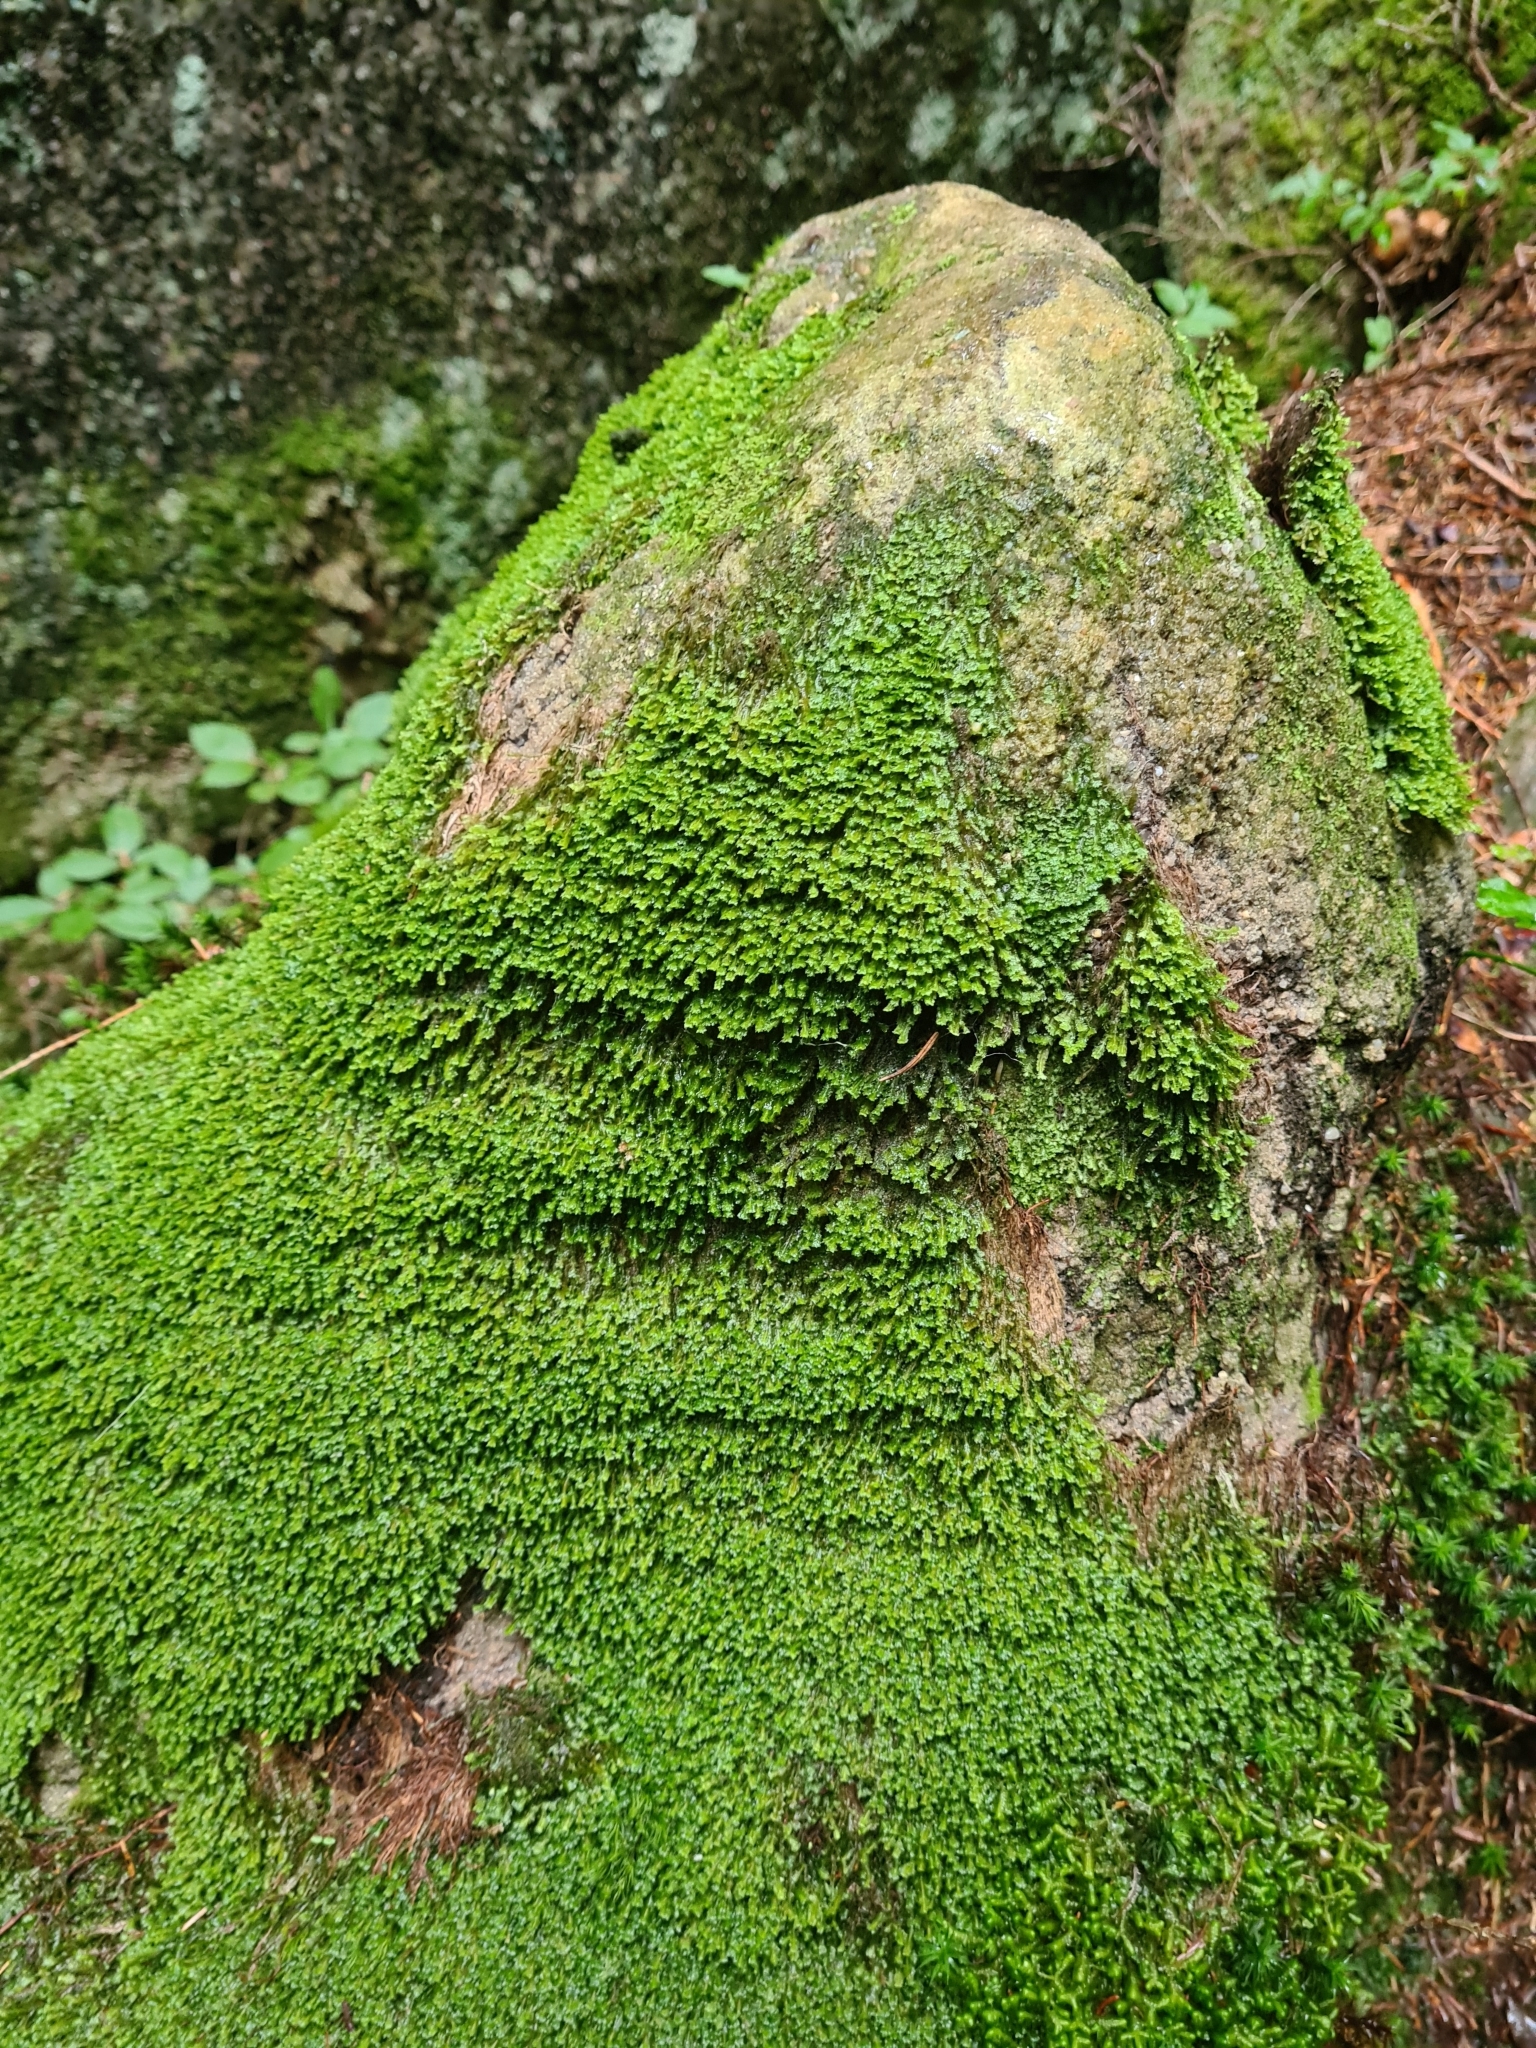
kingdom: Plantae
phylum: Marchantiophyta
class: Jungermanniopsida
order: Jungermanniales
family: Scapaniaceae
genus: Diplophyllum
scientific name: Diplophyllum albicans
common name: White earwort
